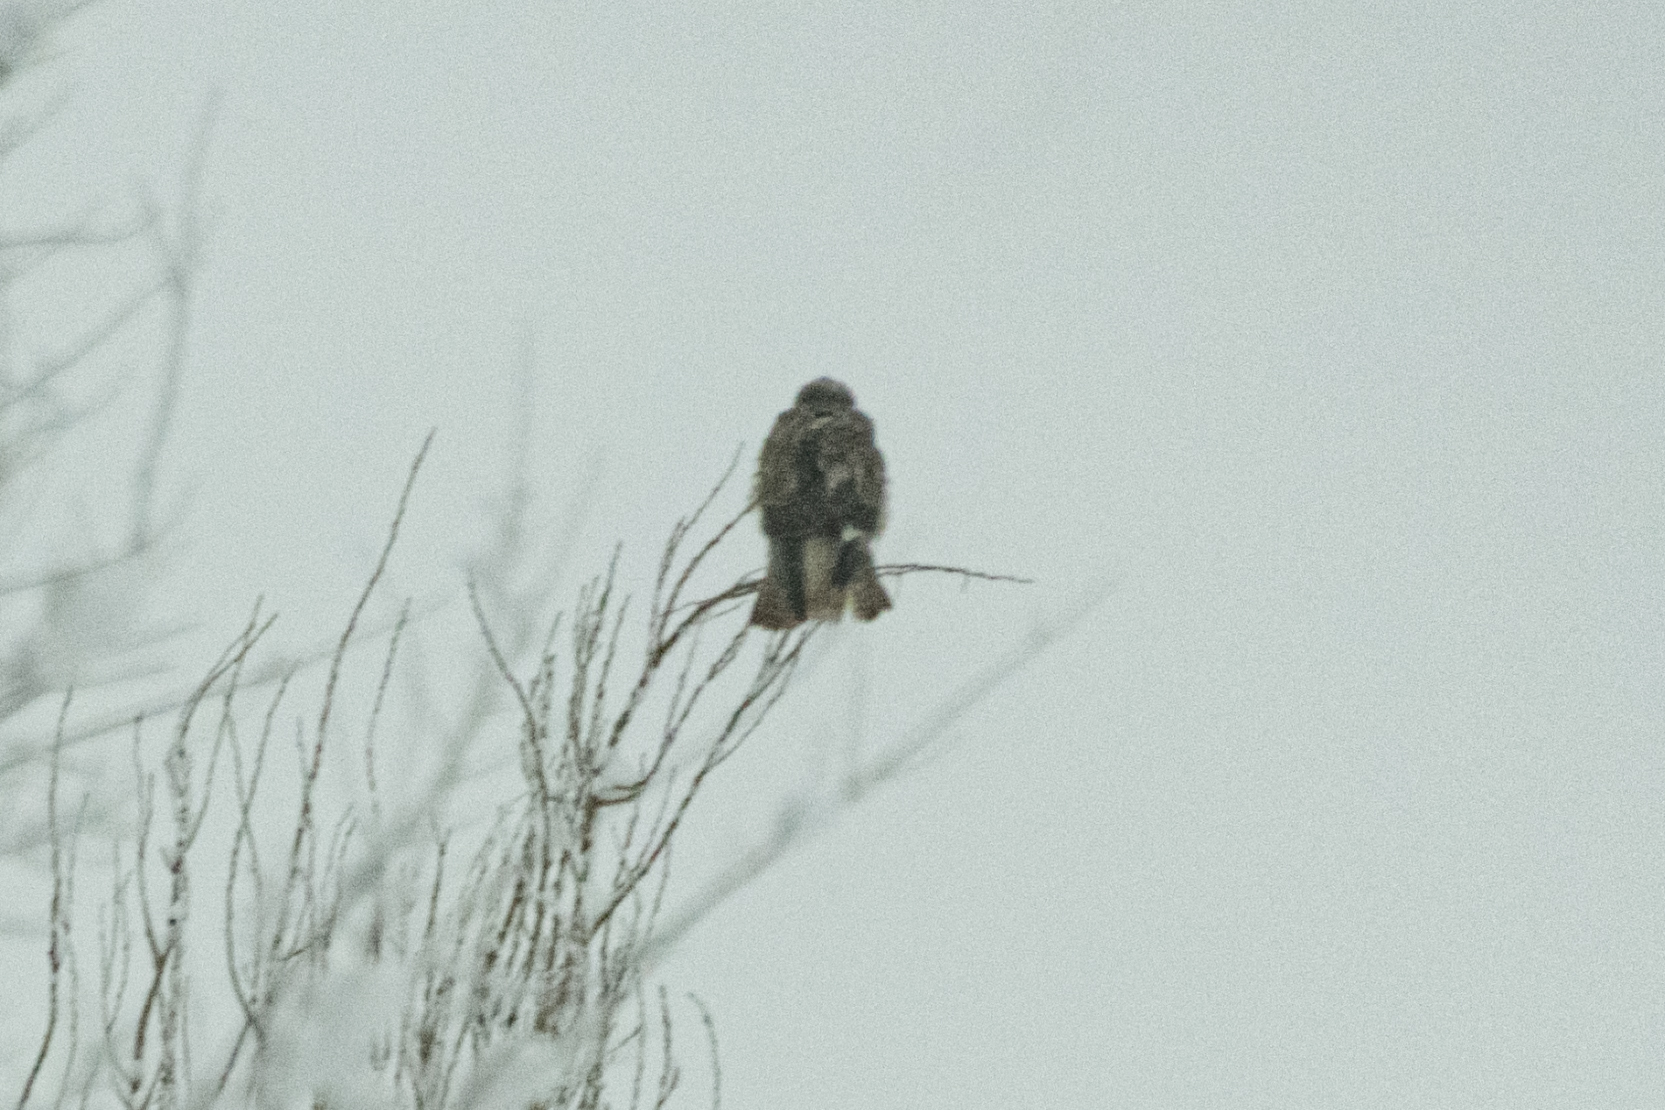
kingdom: Animalia
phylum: Chordata
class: Aves
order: Accipitriformes
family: Accipitridae
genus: Buteo
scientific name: Buteo rufinus
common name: Long-legged buzzard
